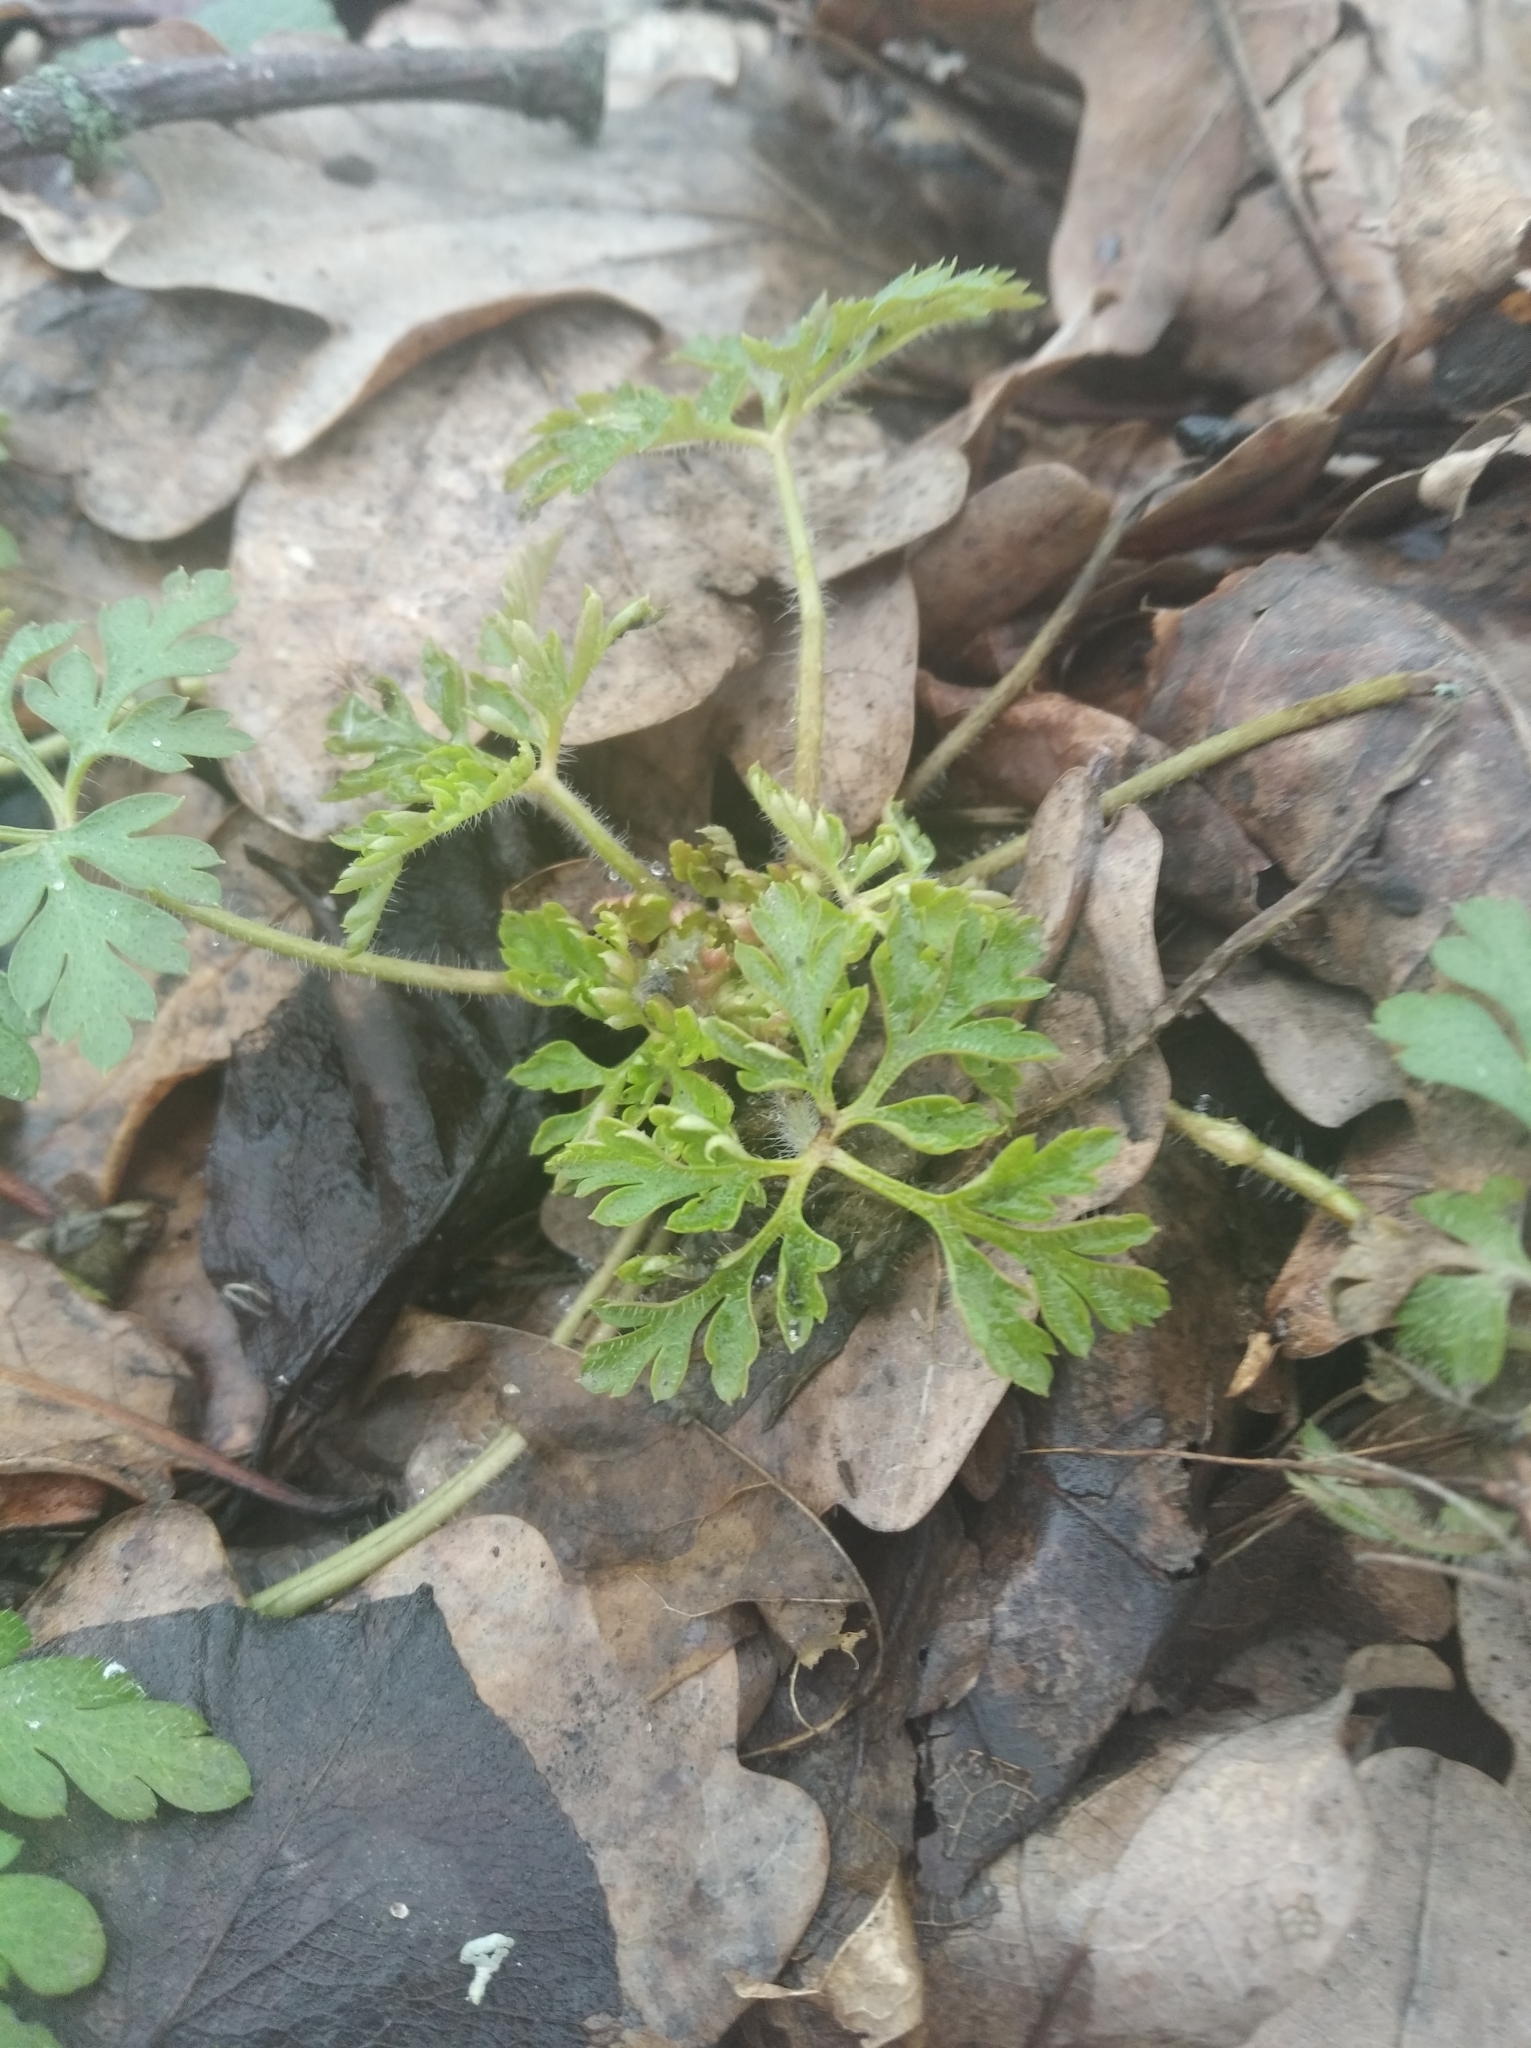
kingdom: Plantae
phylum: Tracheophyta
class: Magnoliopsida
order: Geraniales
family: Geraniaceae
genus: Geranium
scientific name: Geranium robertianum
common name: Herb-robert
